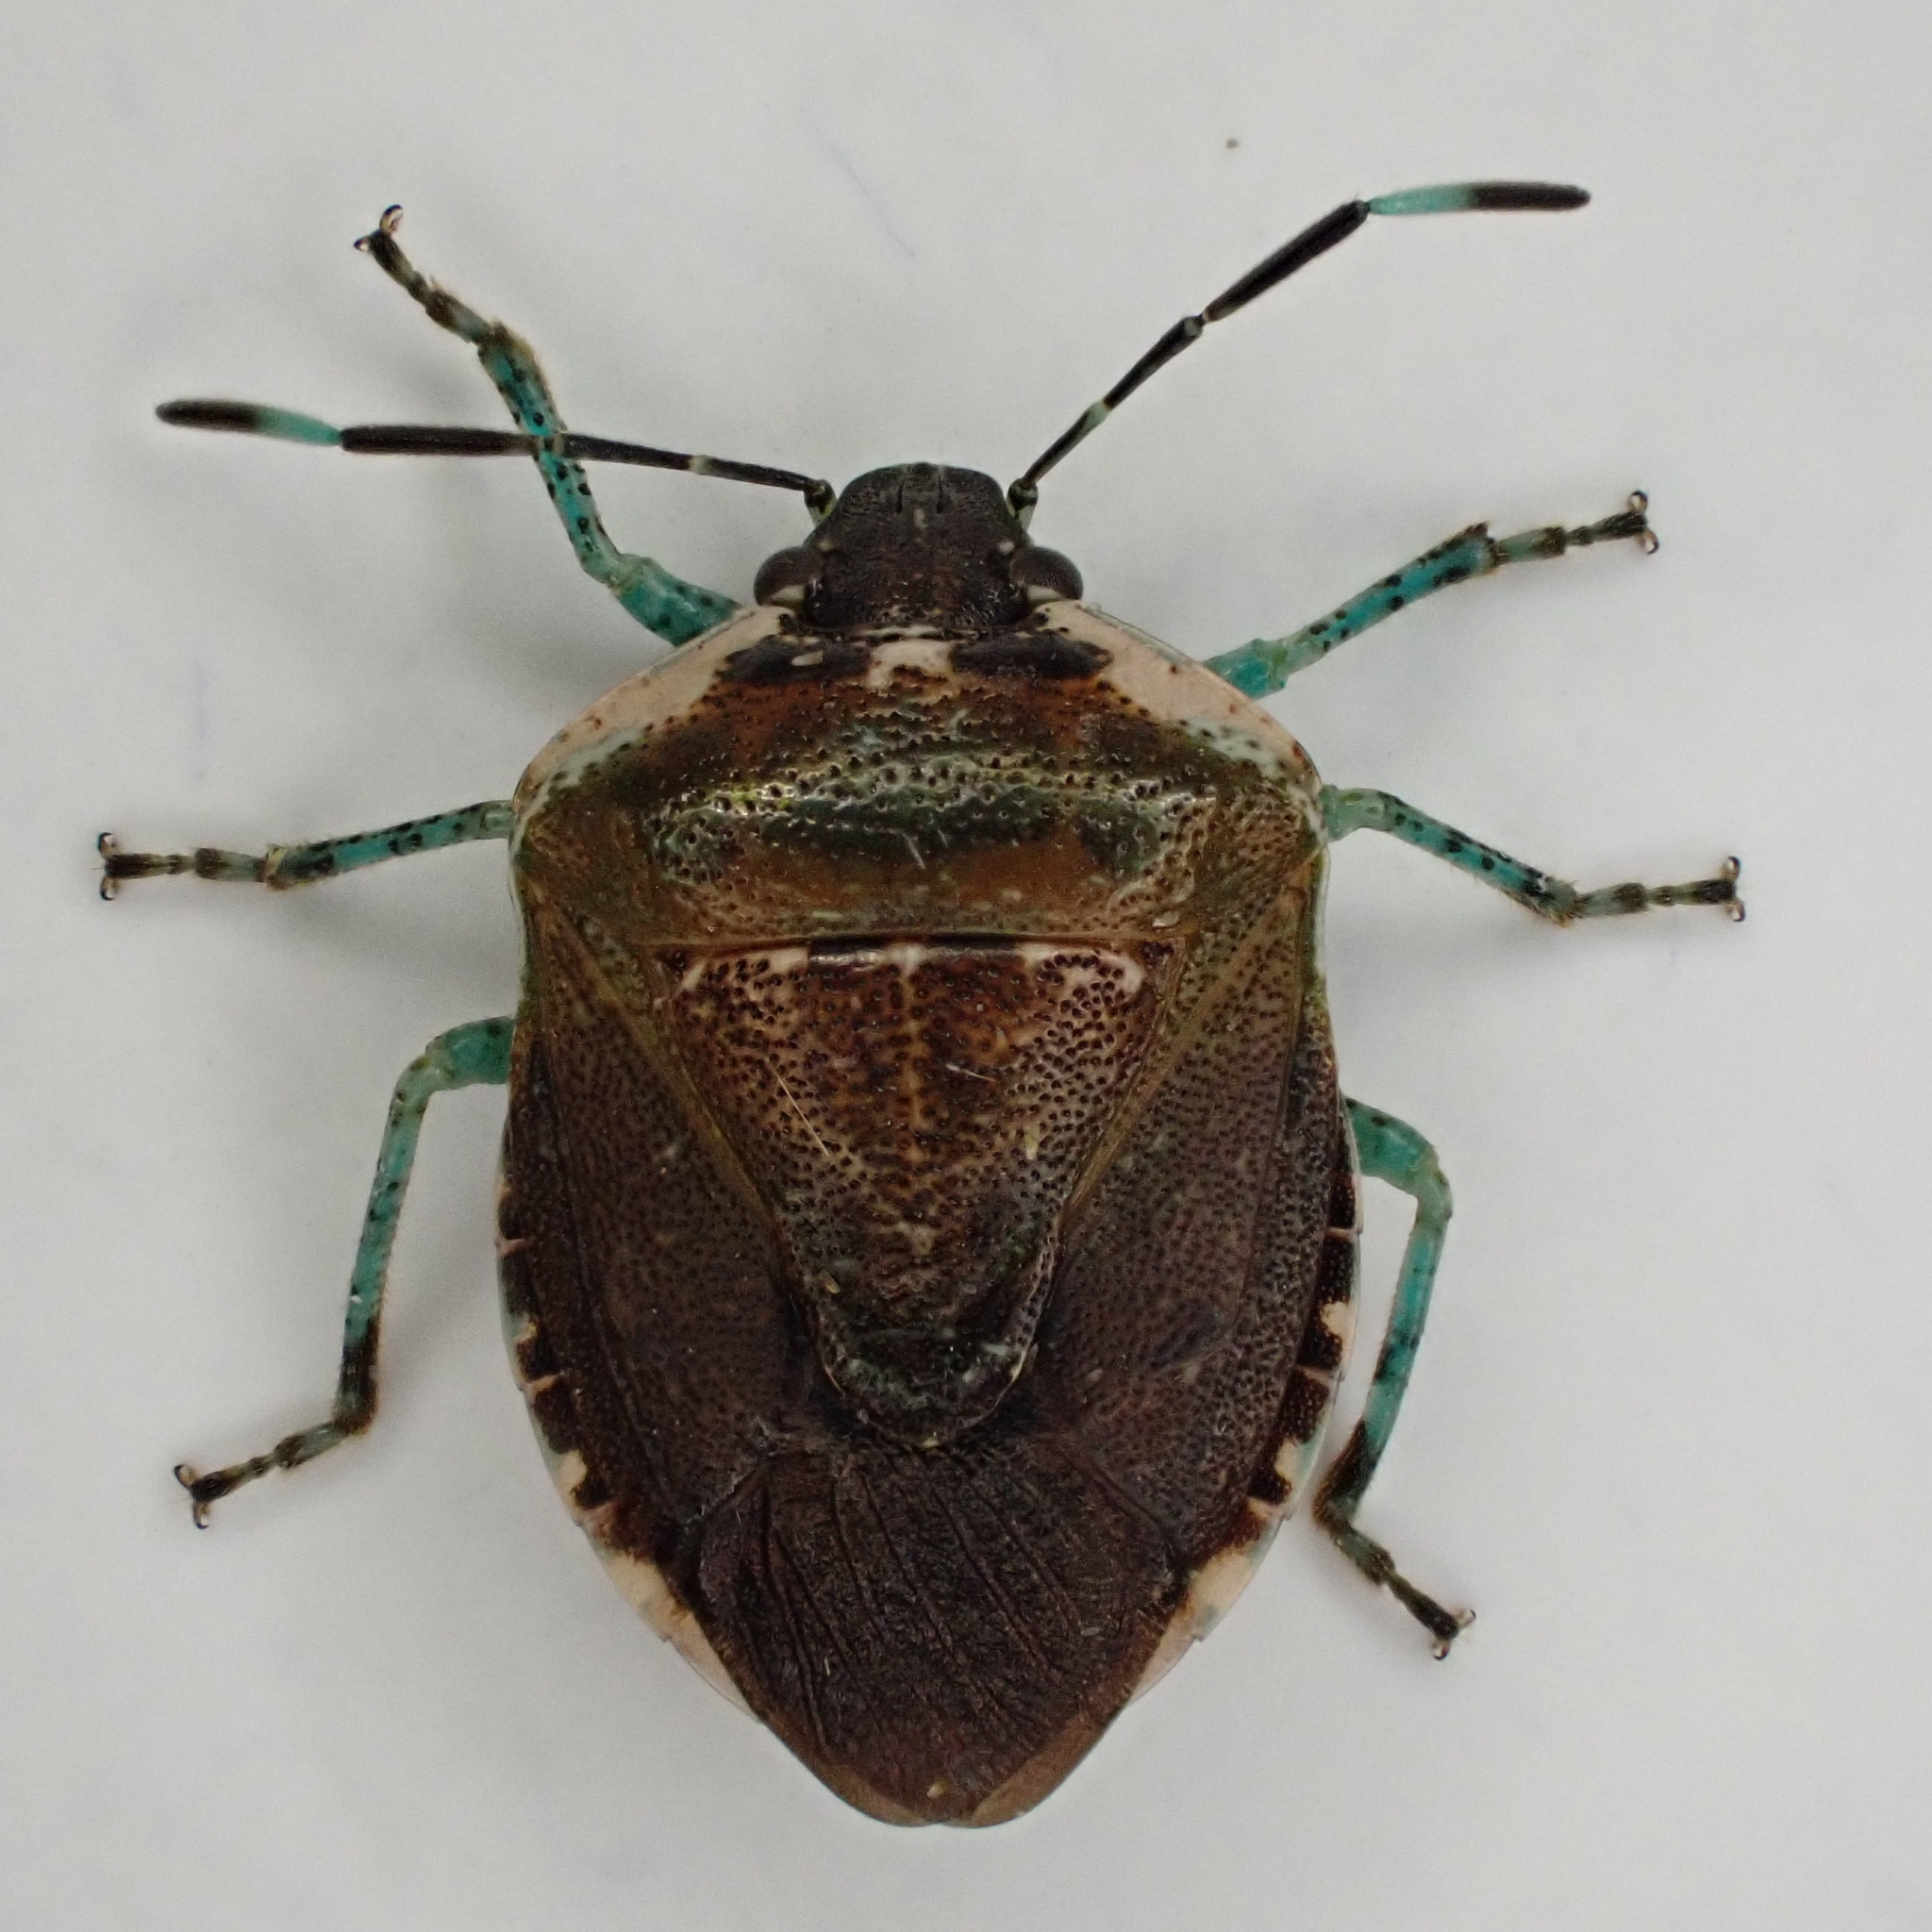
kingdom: Animalia
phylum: Arthropoda
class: Insecta
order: Hemiptera
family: Pentatomidae
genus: Monteithiella
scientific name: Monteithiella
